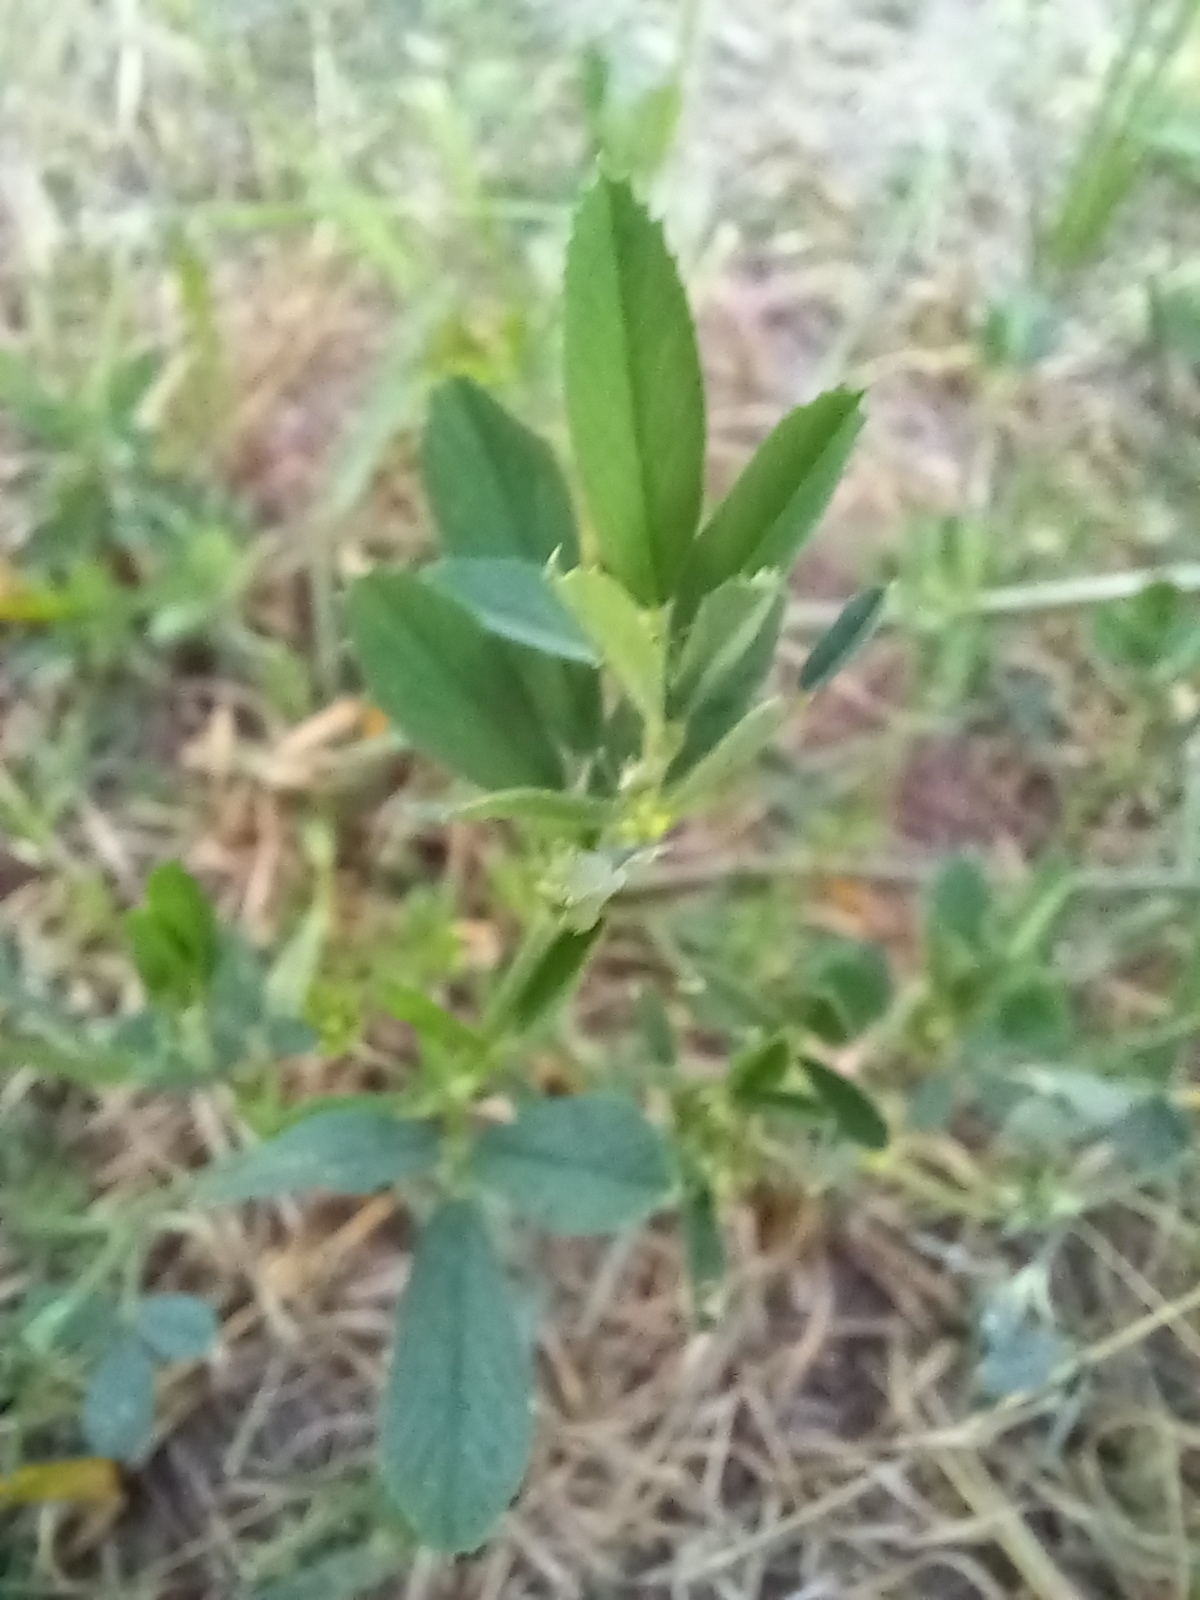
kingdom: Plantae
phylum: Tracheophyta
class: Magnoliopsida
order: Fabales
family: Fabaceae
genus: Medicago
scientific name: Medicago varia
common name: Sand lucerne
